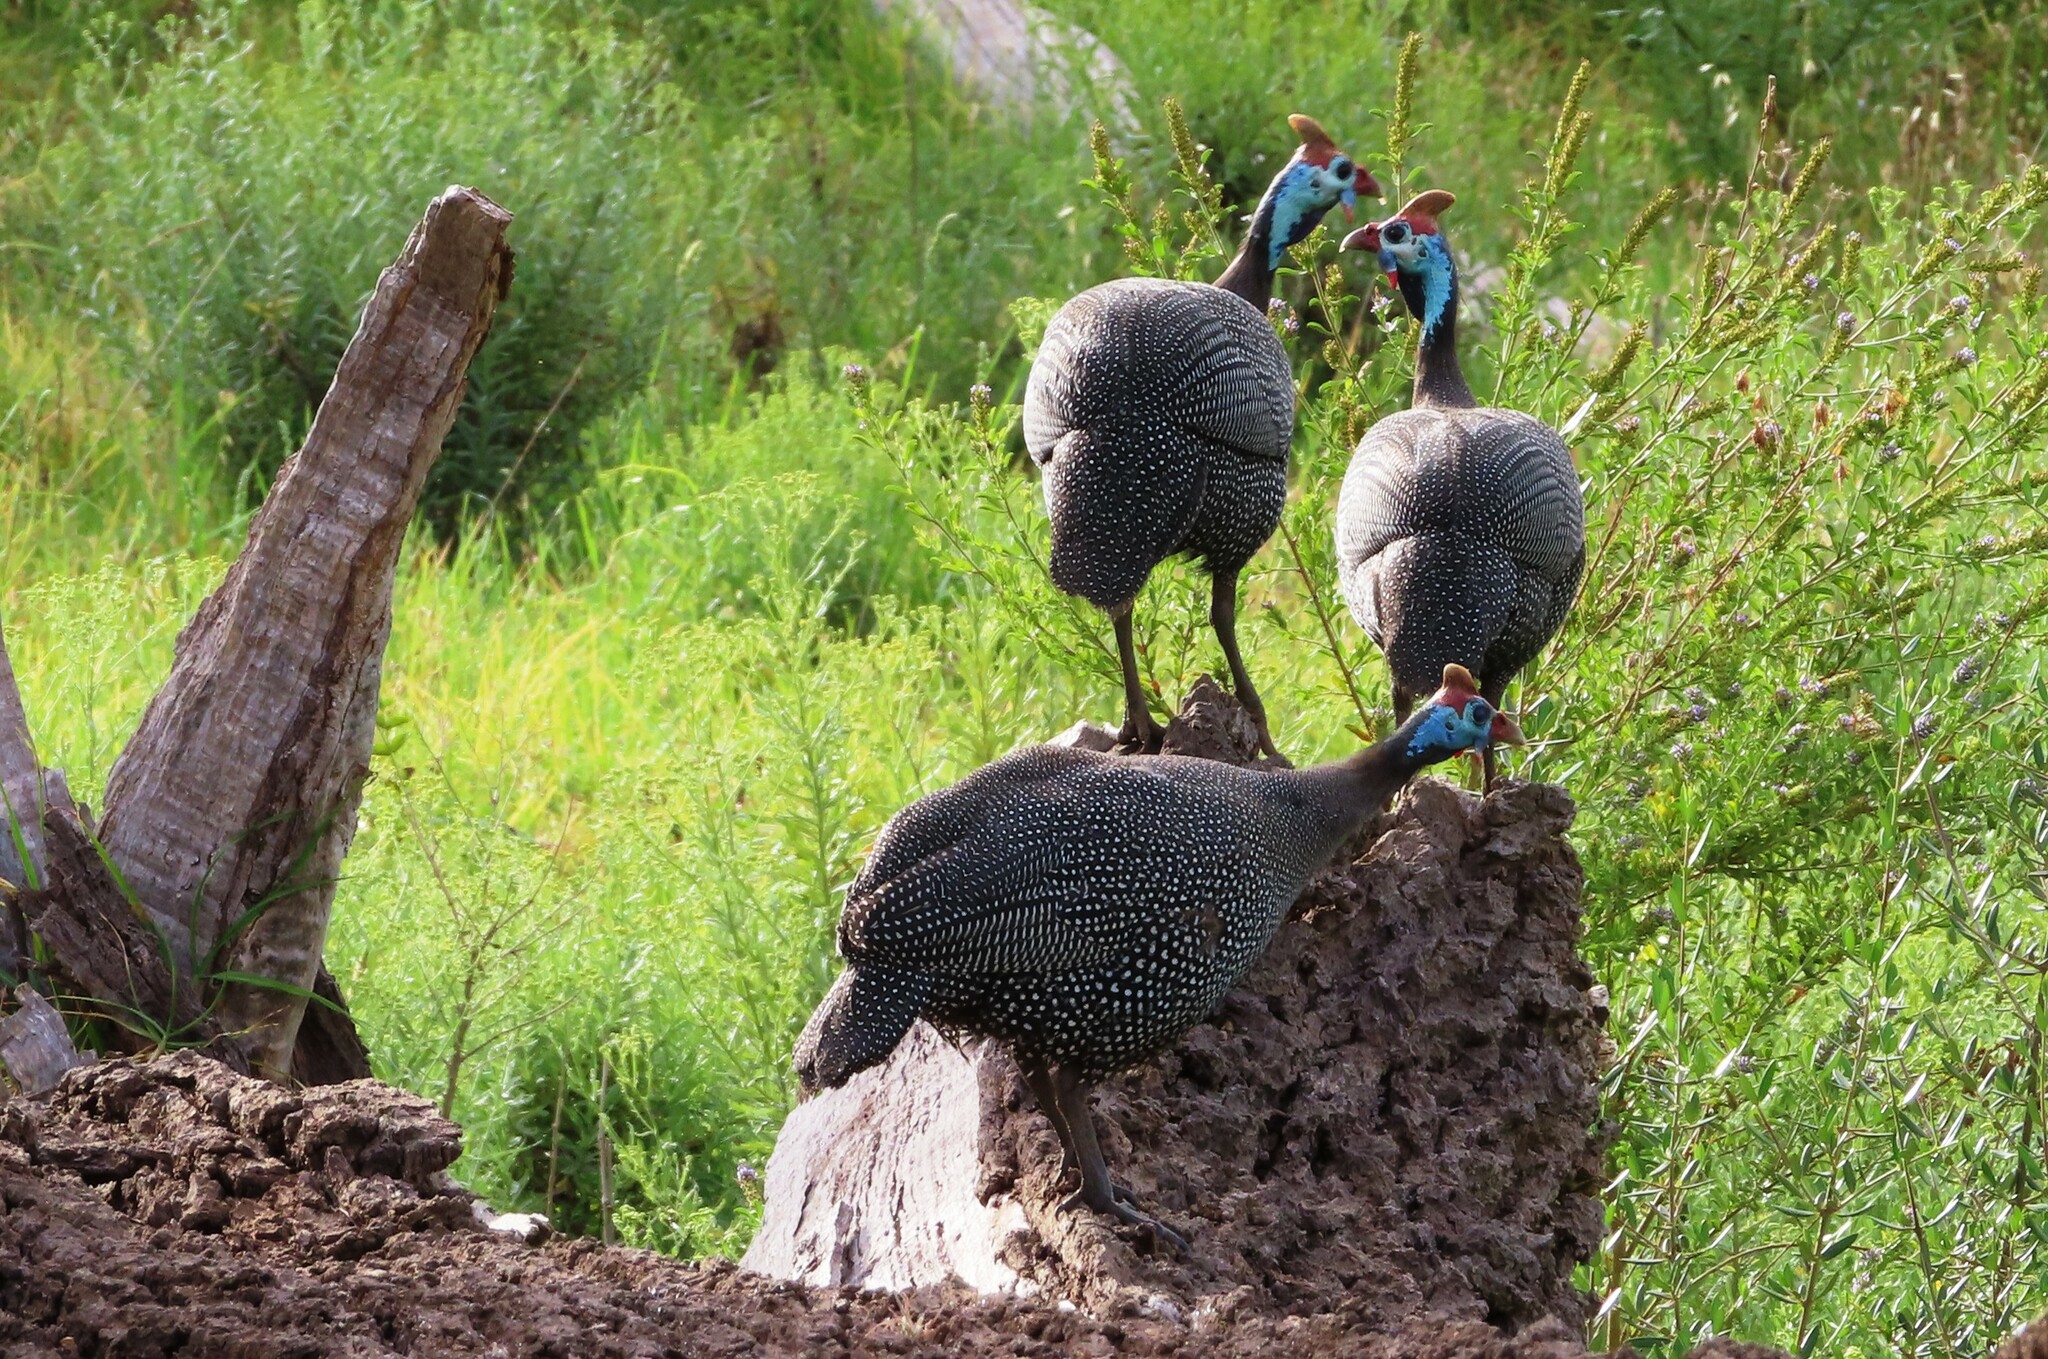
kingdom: Animalia
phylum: Chordata
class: Aves
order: Galliformes
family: Numididae
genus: Numida
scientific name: Numida meleagris
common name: Helmeted guineafowl
